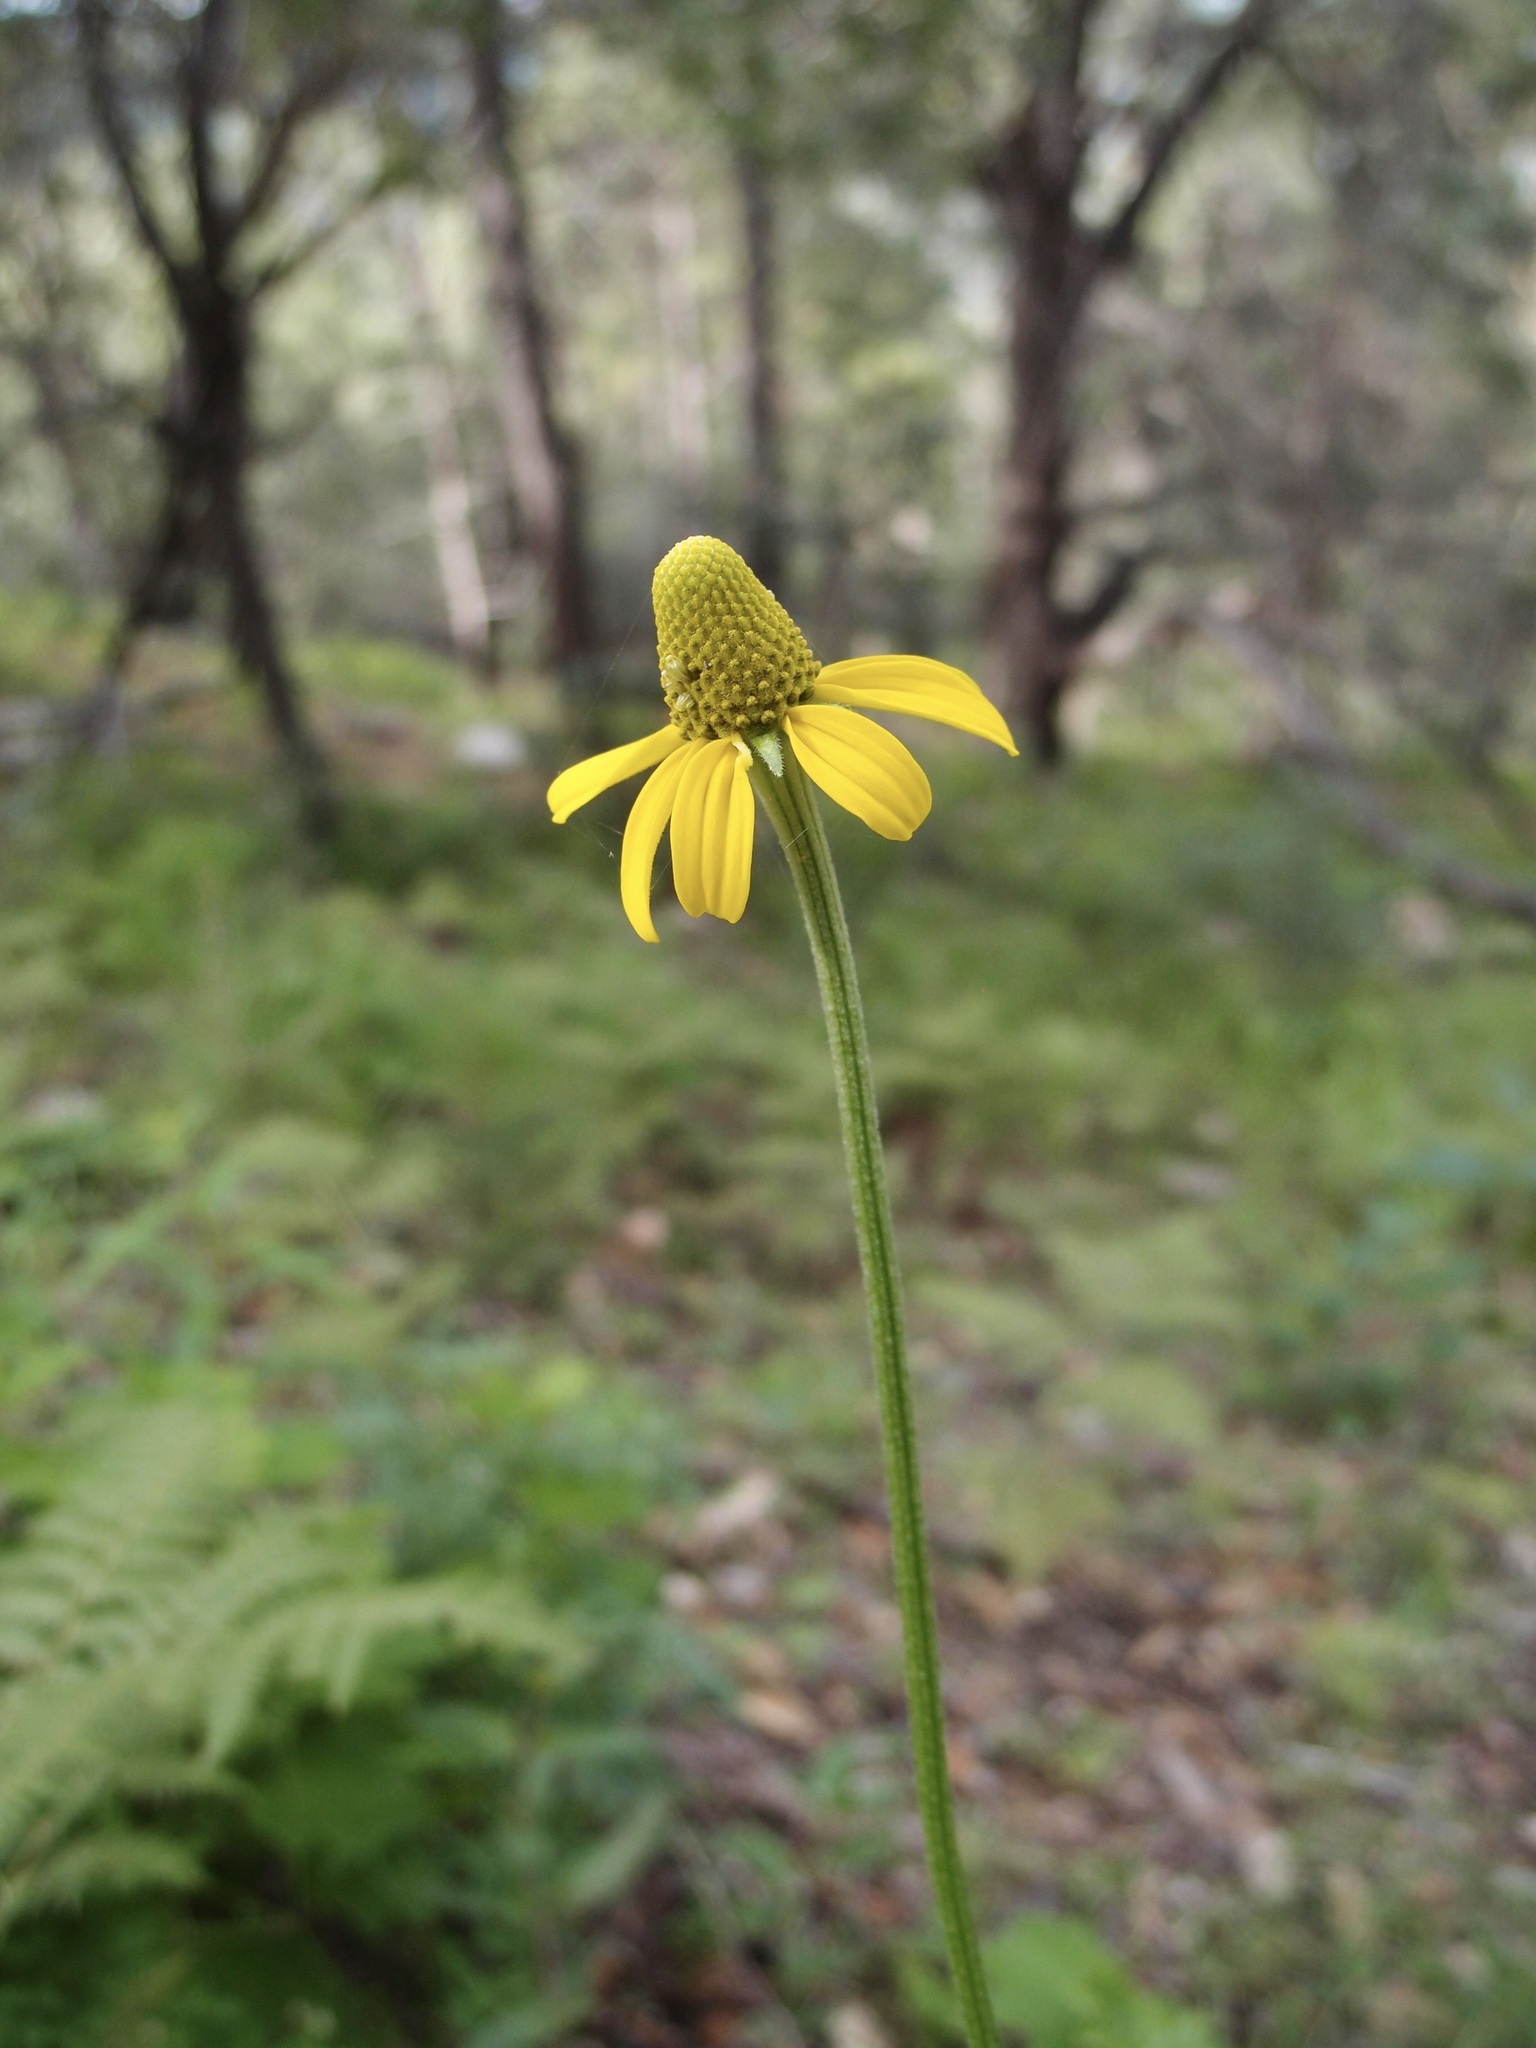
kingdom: Plantae
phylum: Tracheophyta
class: Magnoliopsida
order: Asterales
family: Asteraceae
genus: Ratibida
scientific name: Ratibida mexicana
